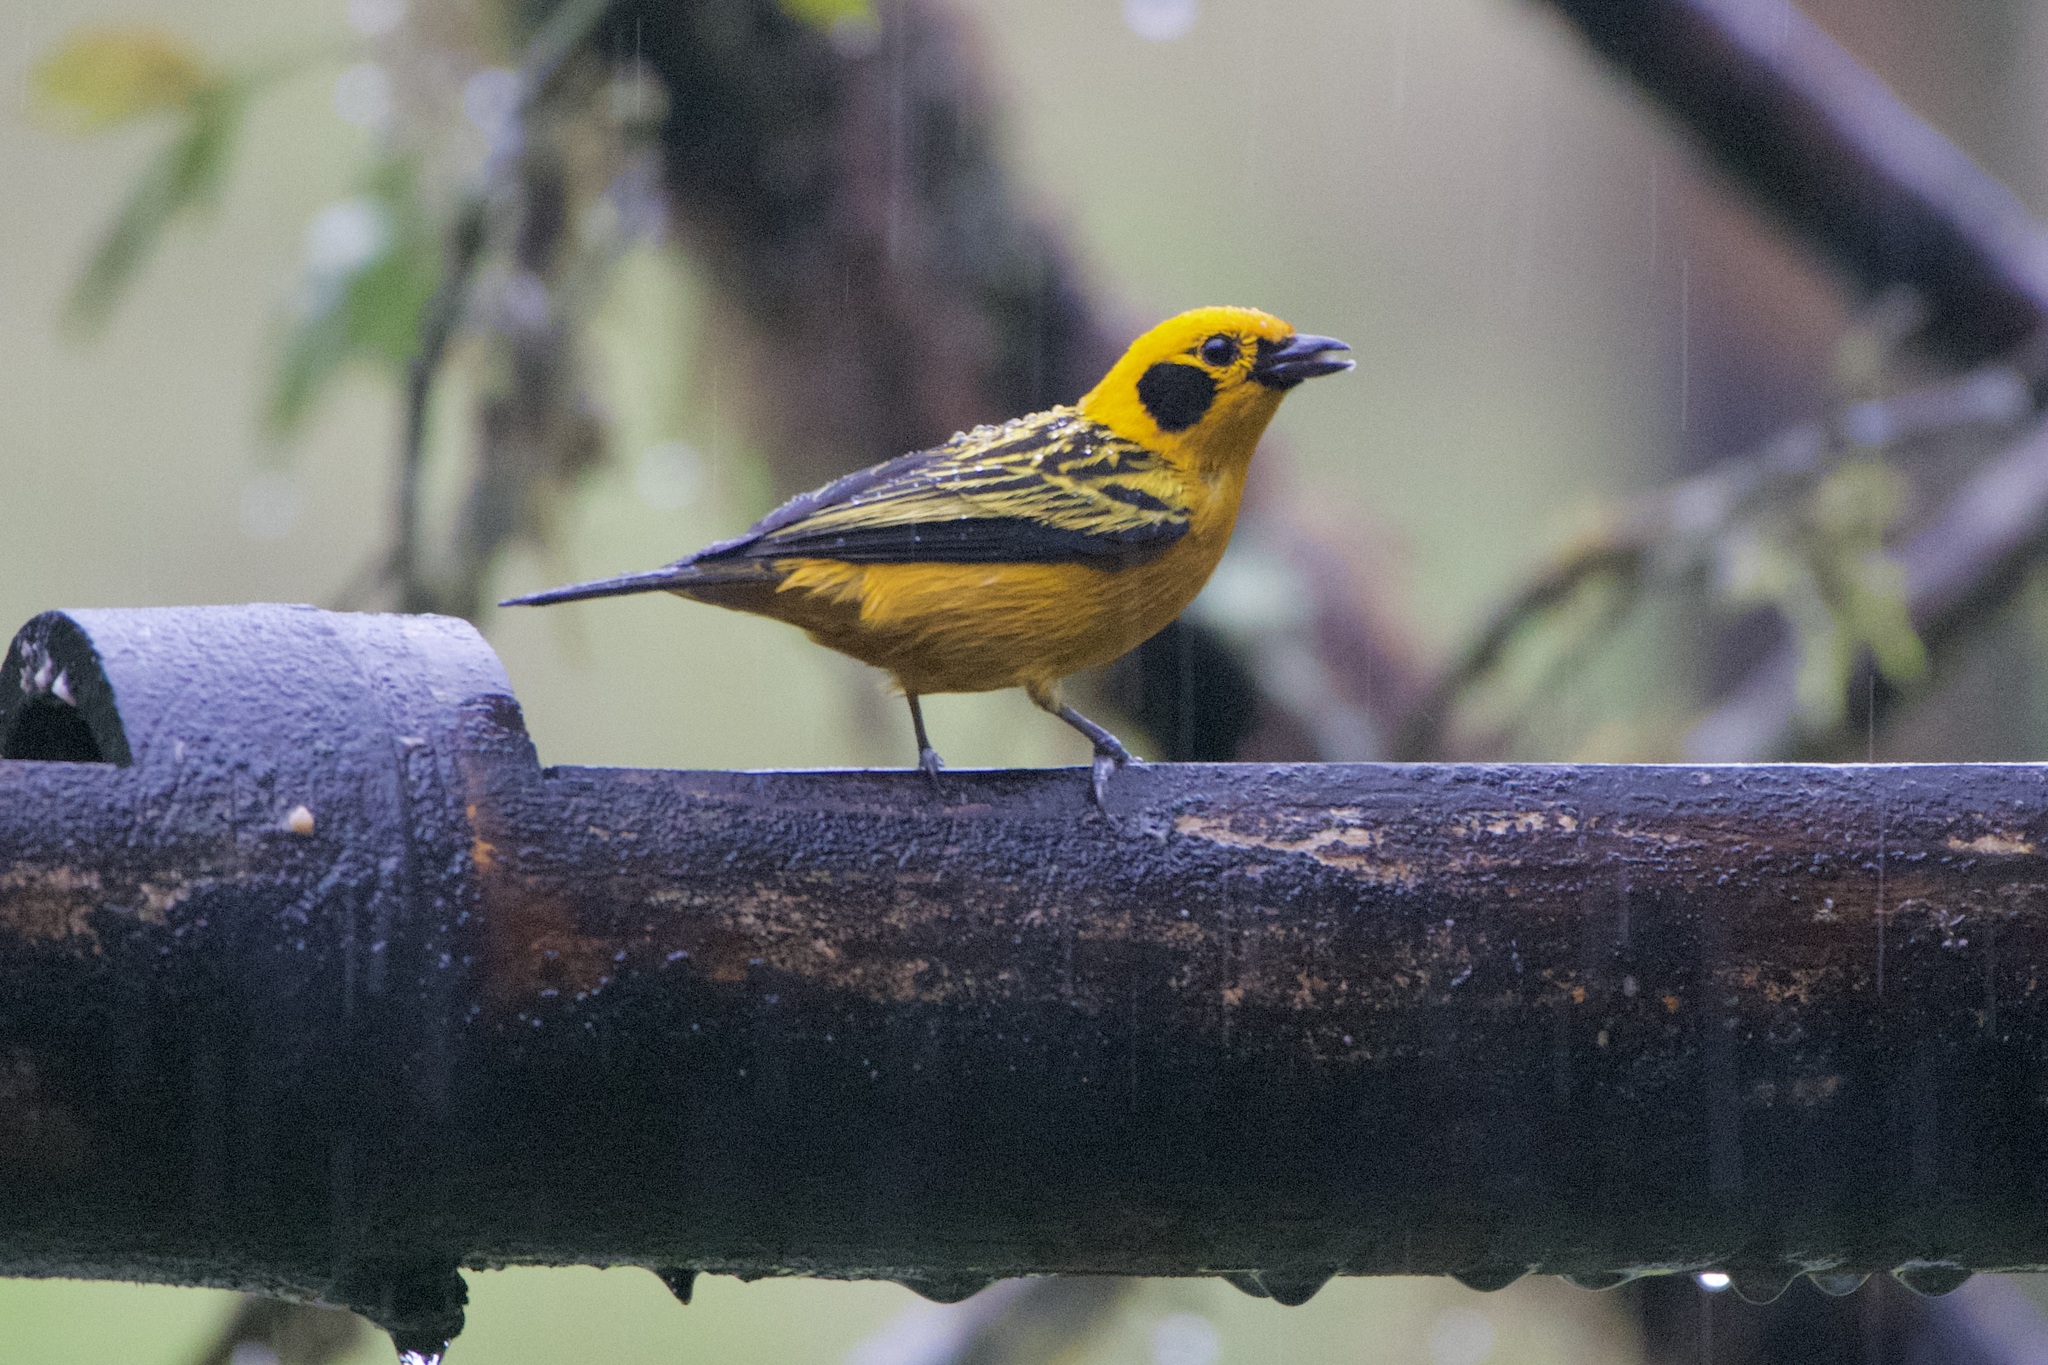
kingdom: Animalia
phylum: Chordata
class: Aves
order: Passeriformes
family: Thraupidae
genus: Tangara
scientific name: Tangara arthus
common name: Golden tanager
